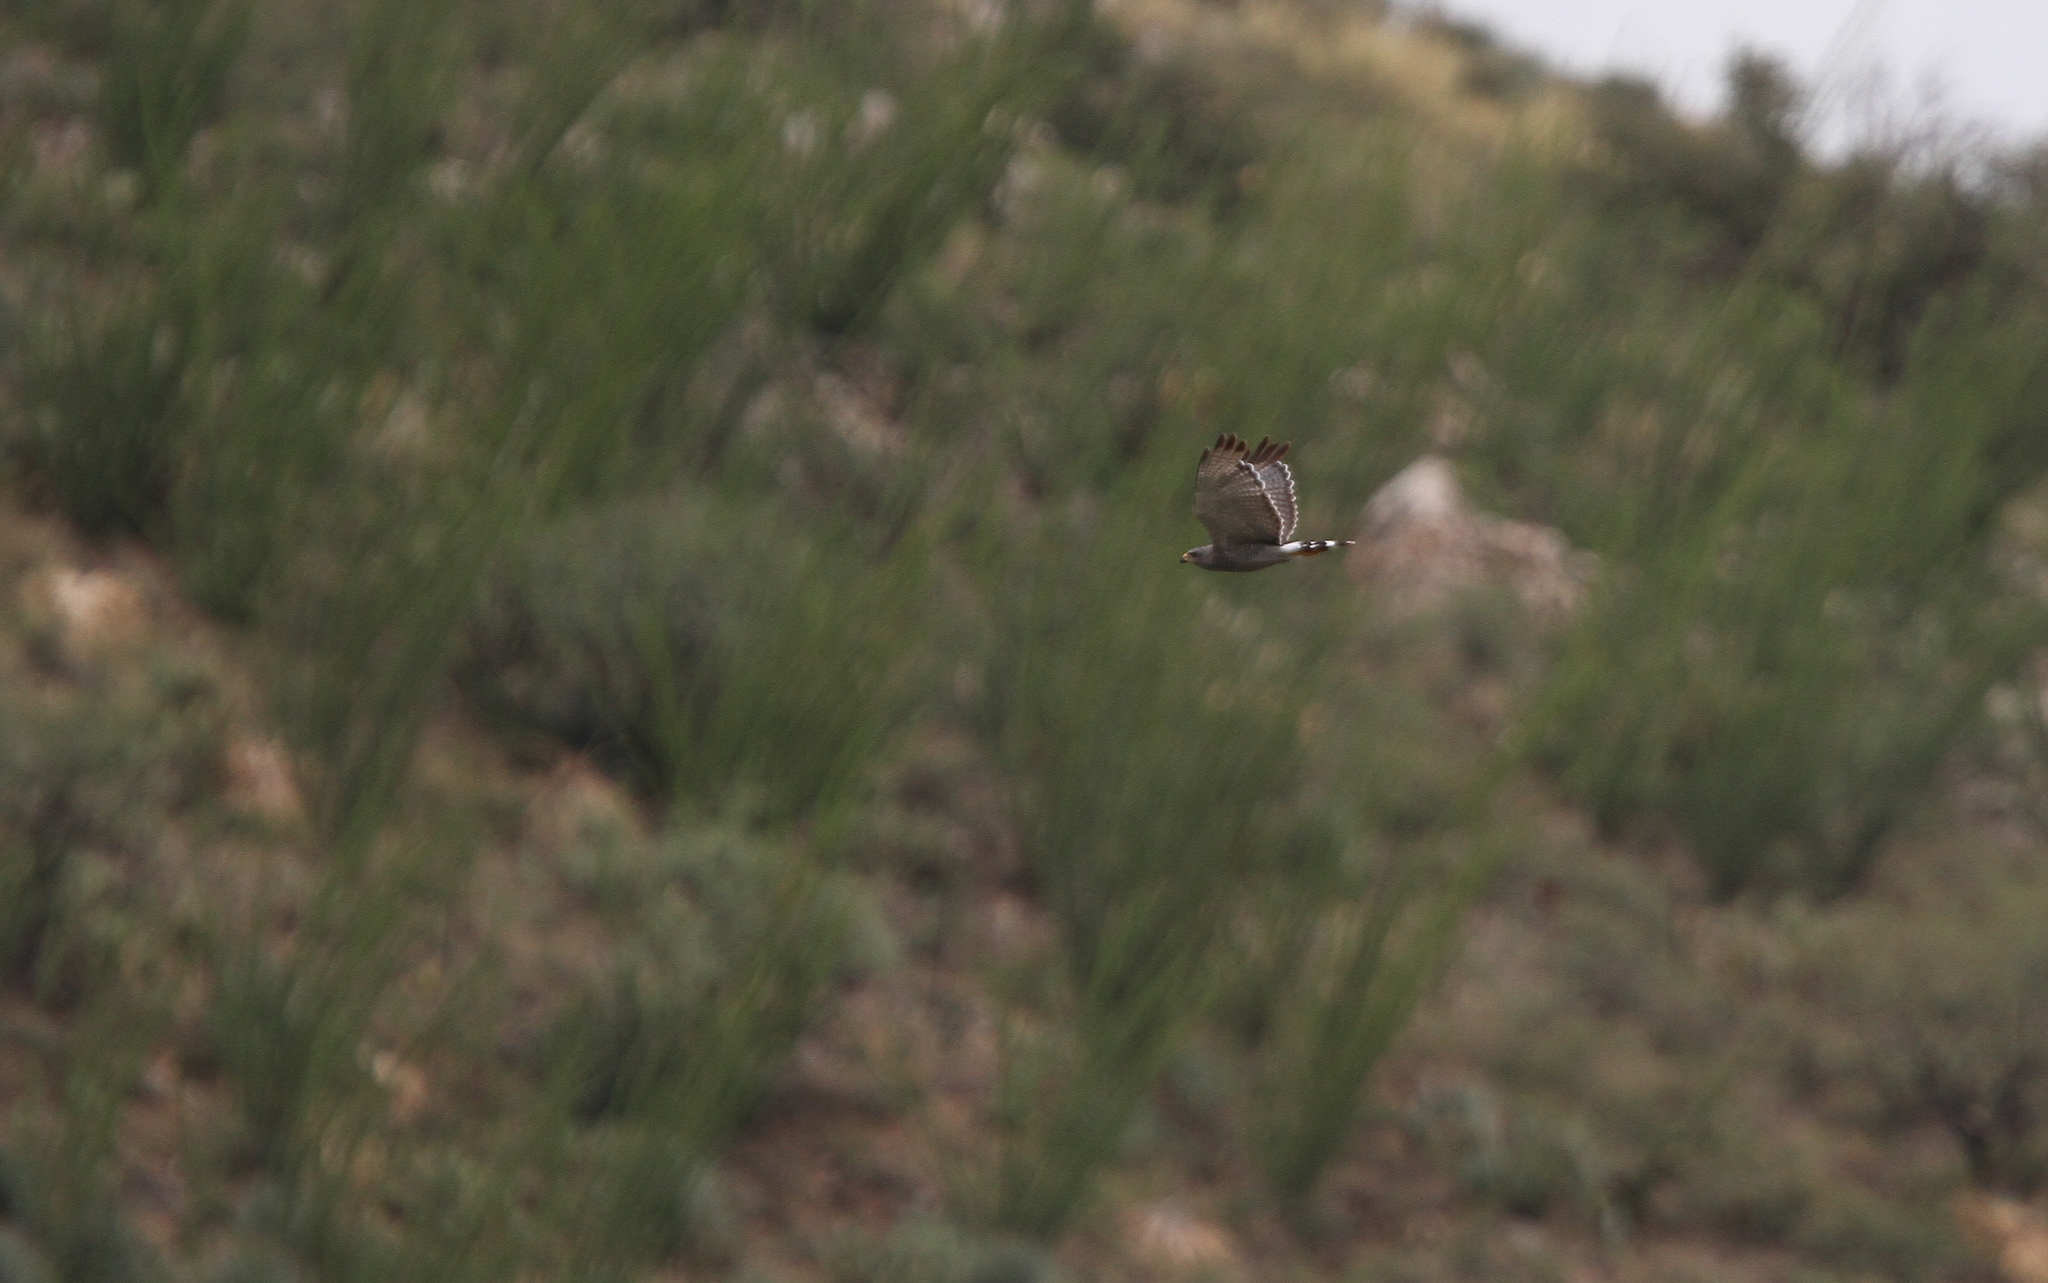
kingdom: Animalia
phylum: Chordata
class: Aves
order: Accipitriformes
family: Accipitridae
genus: Buteo
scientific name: Buteo nitidus
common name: Grey-lined hawk
